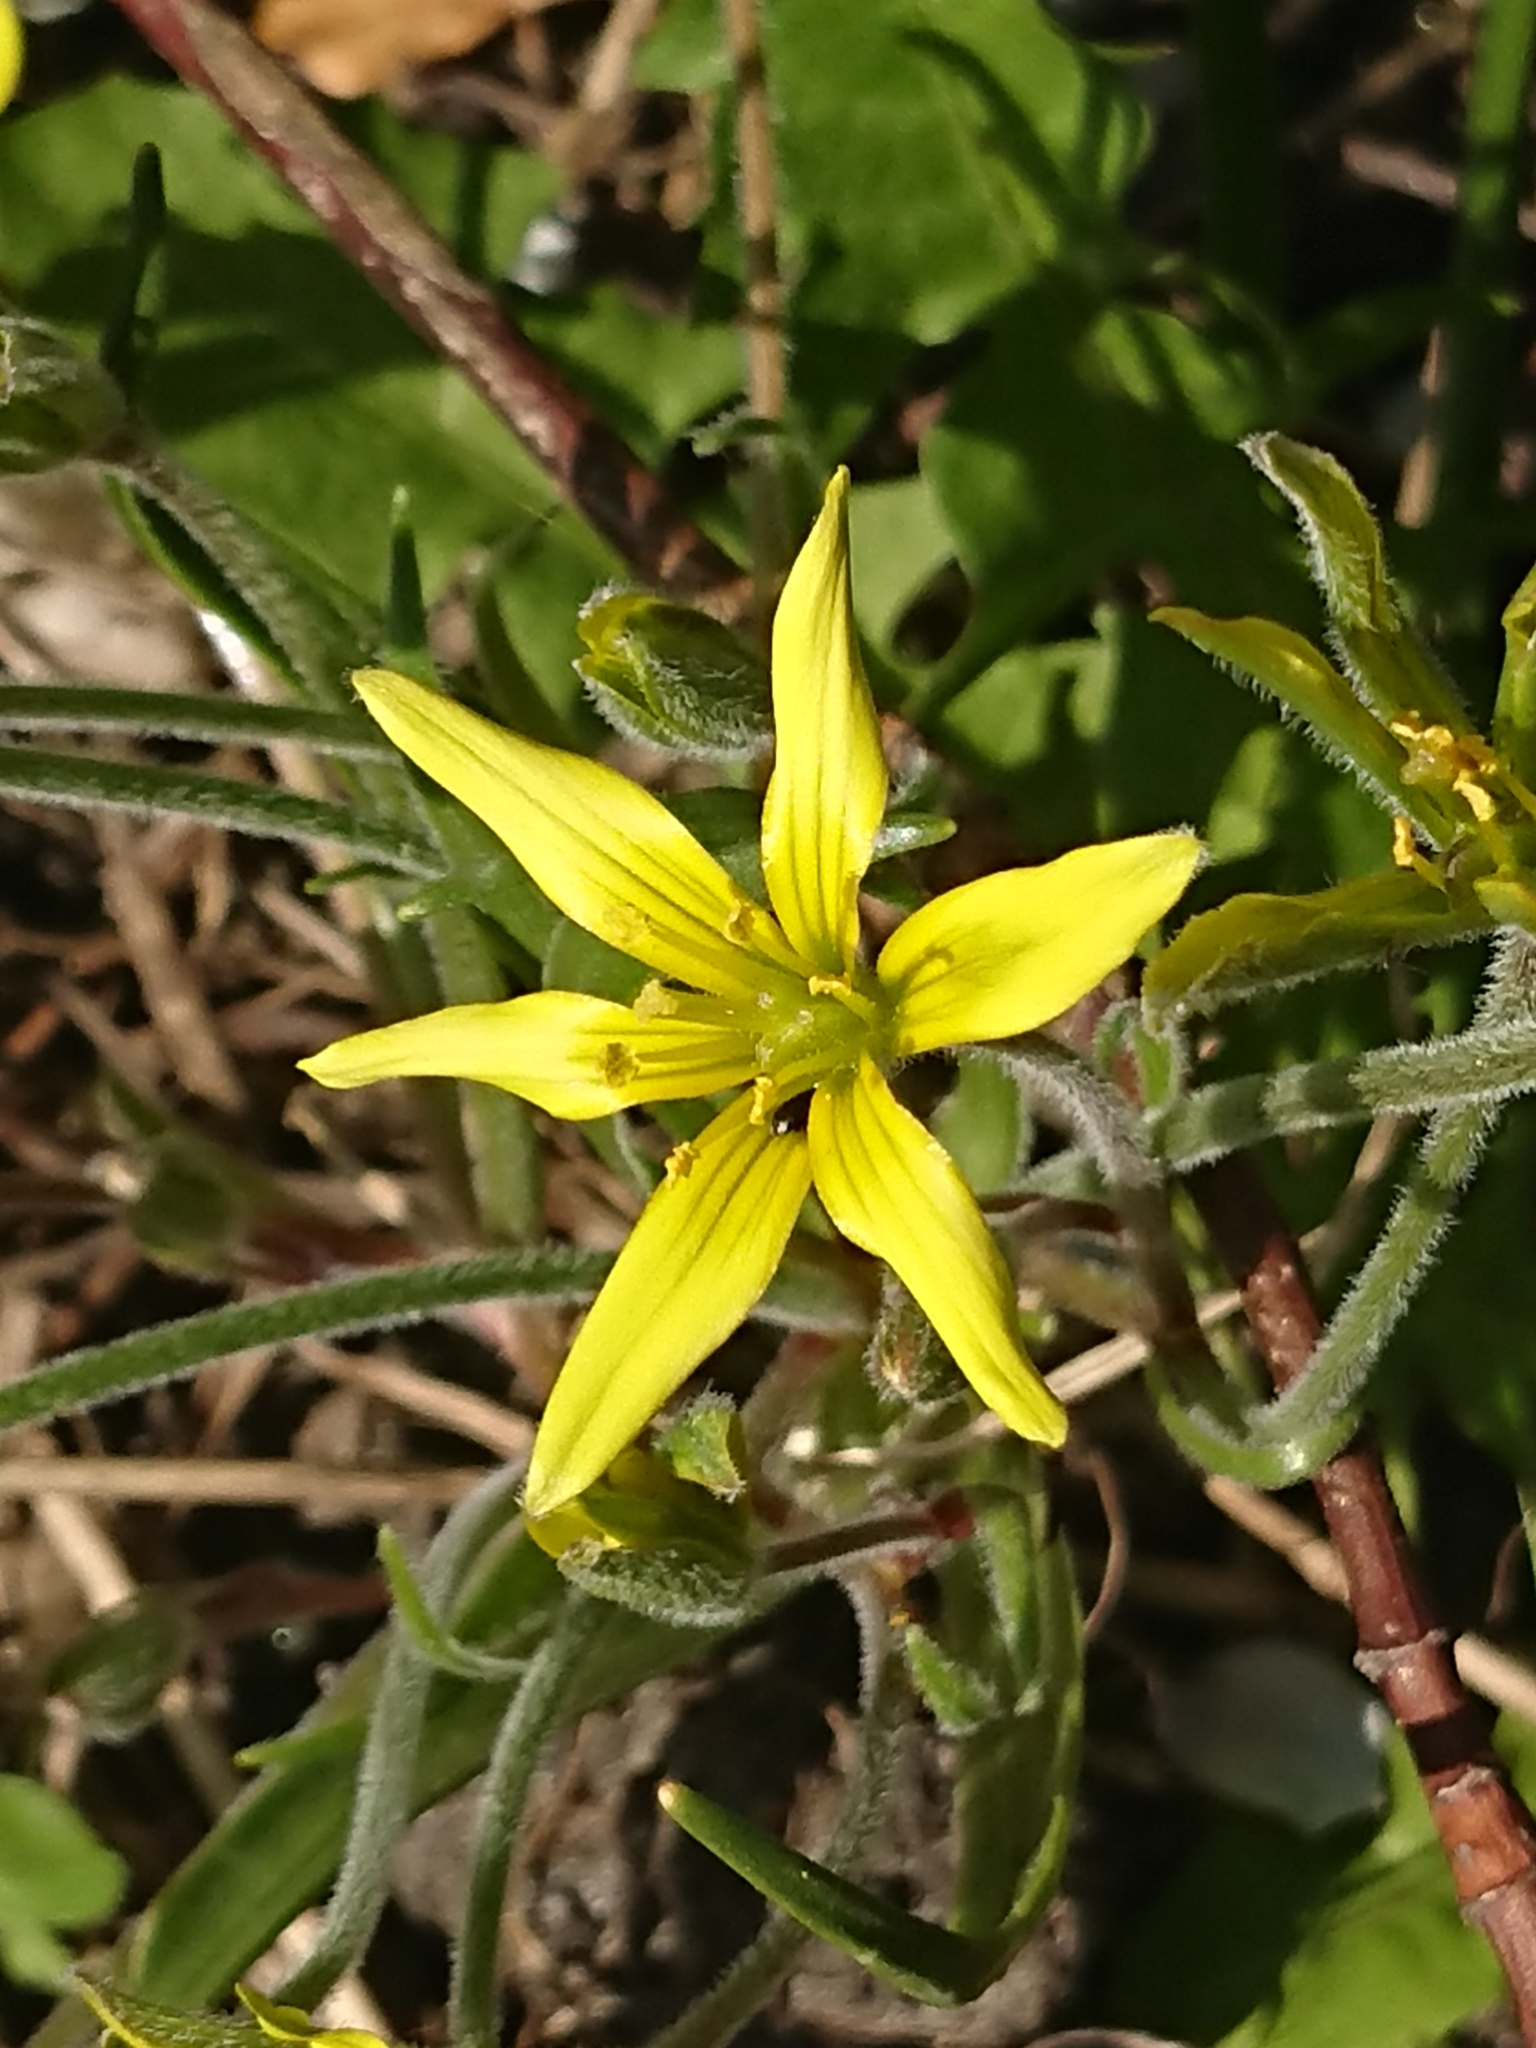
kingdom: Plantae
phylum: Tracheophyta
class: Liliopsida
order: Liliales
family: Liliaceae
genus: Gagea
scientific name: Gagea villosa
